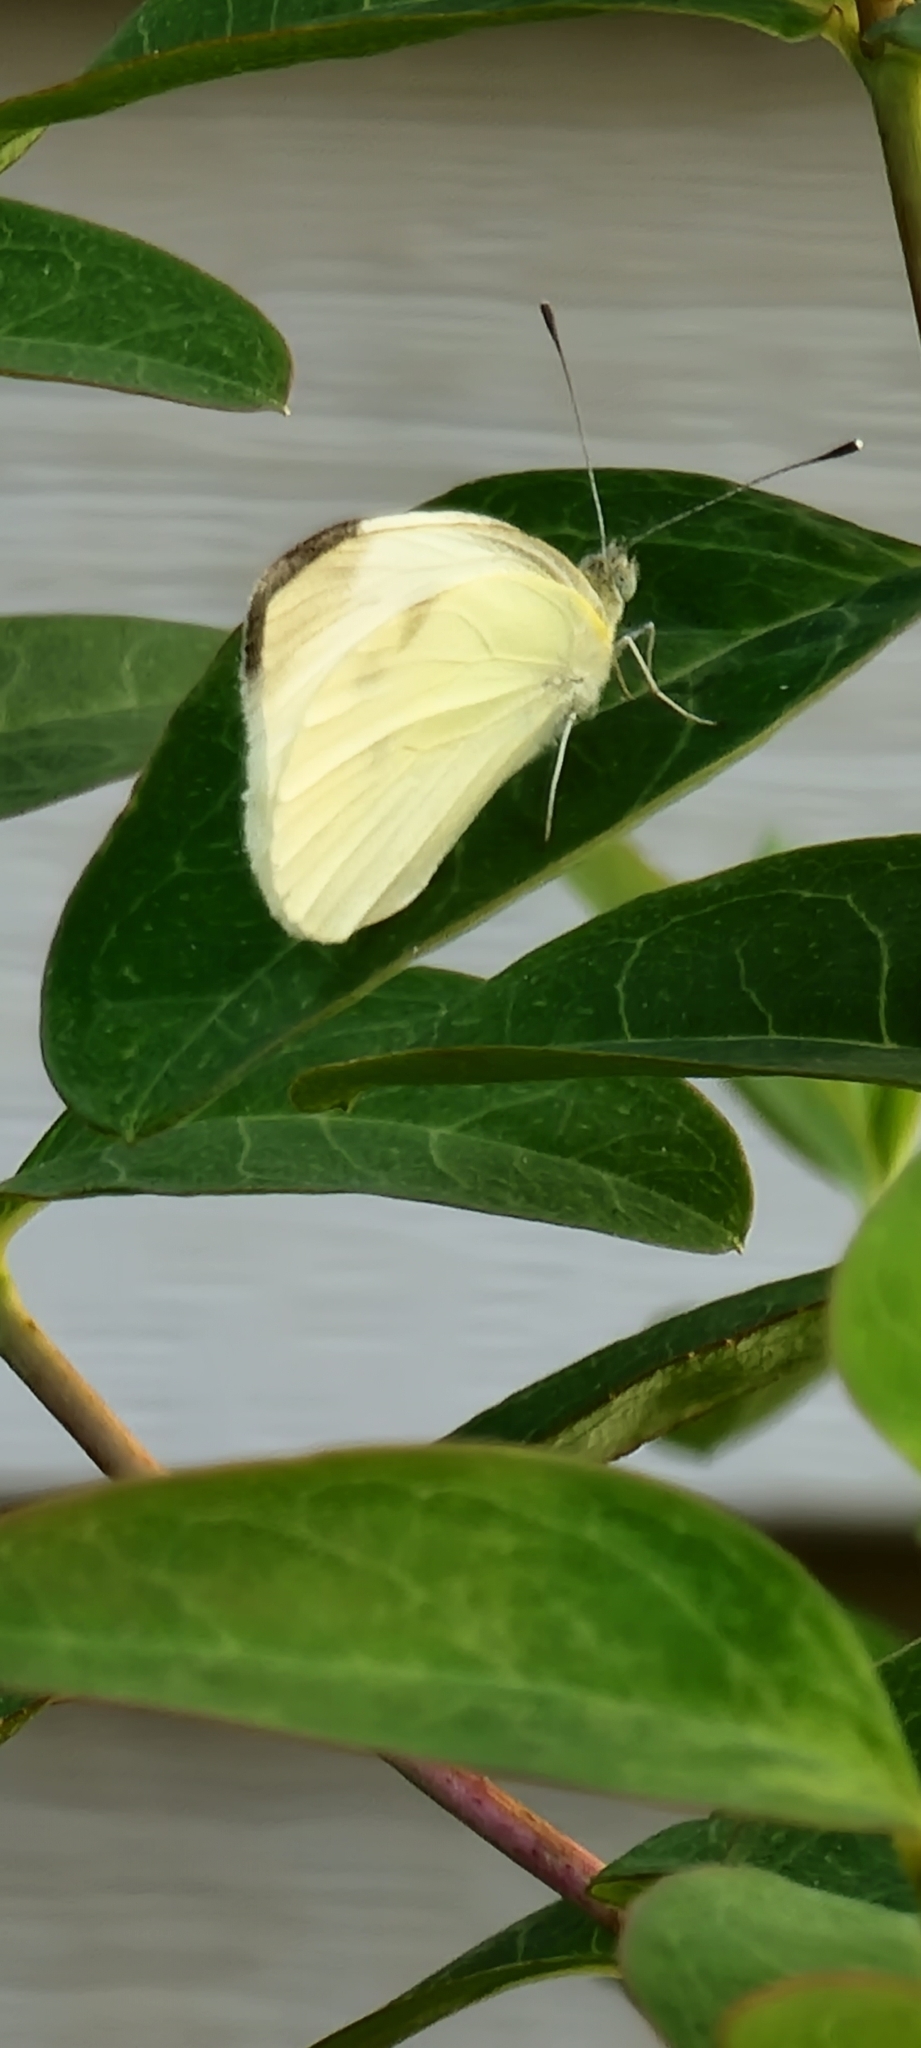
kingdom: Animalia
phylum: Arthropoda
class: Insecta
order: Lepidoptera
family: Pieridae
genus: Pieris
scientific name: Pieris rapae
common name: Small white
